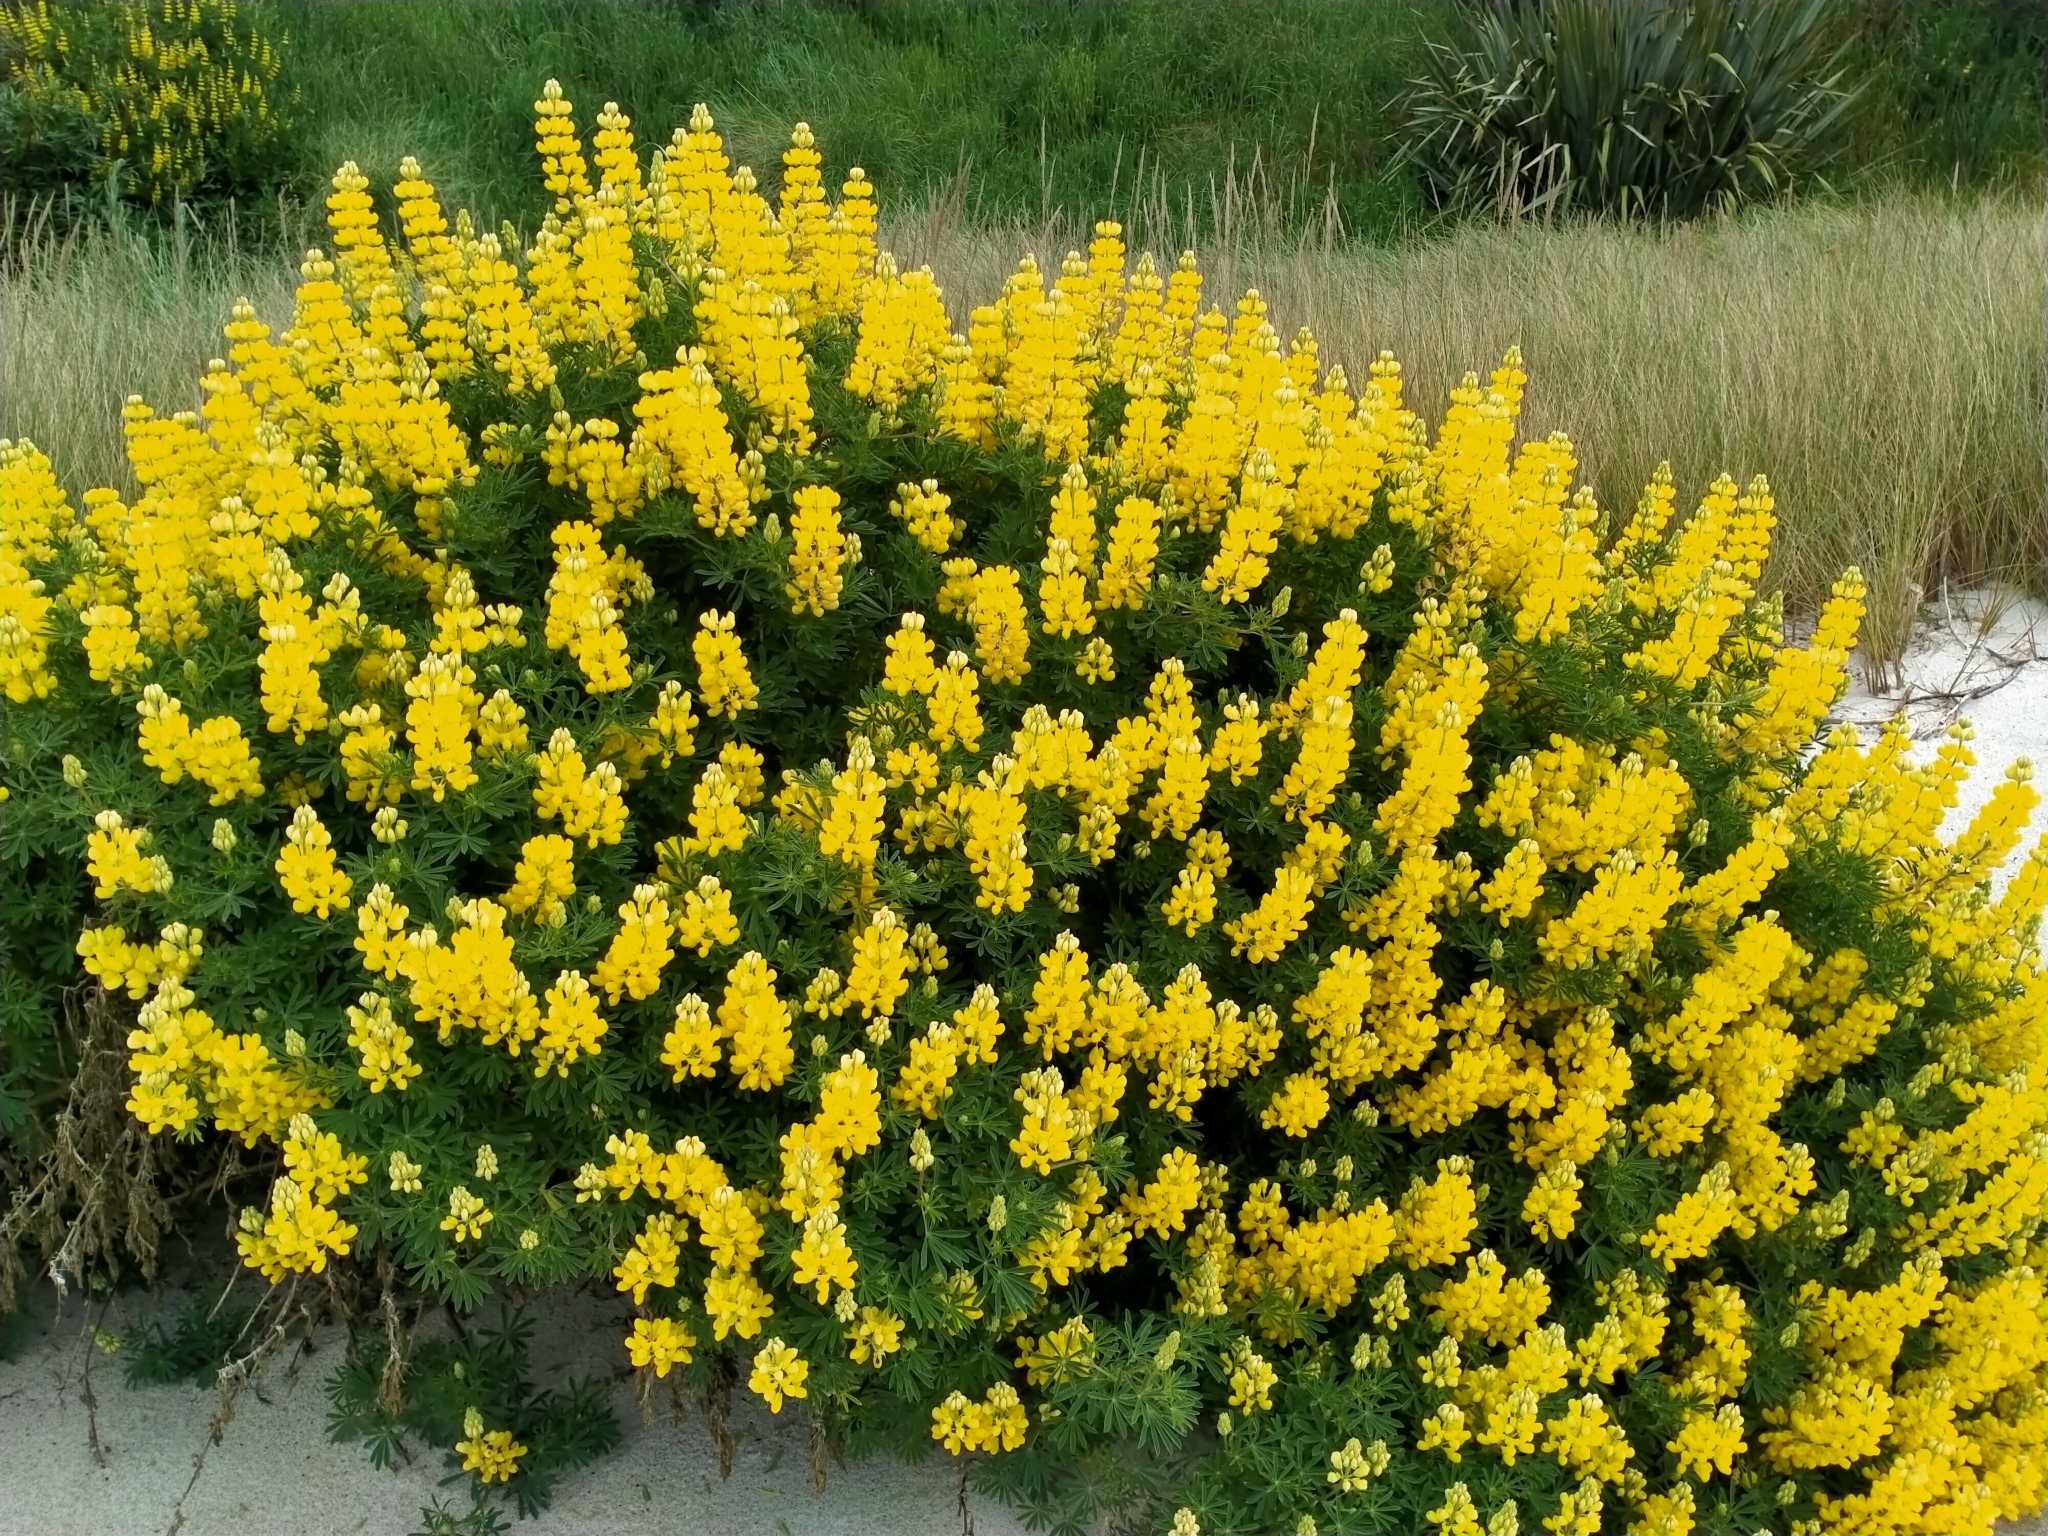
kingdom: Plantae
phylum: Tracheophyta
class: Magnoliopsida
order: Fabales
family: Fabaceae
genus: Lupinus
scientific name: Lupinus arboreus
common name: Yellow bush lupine
